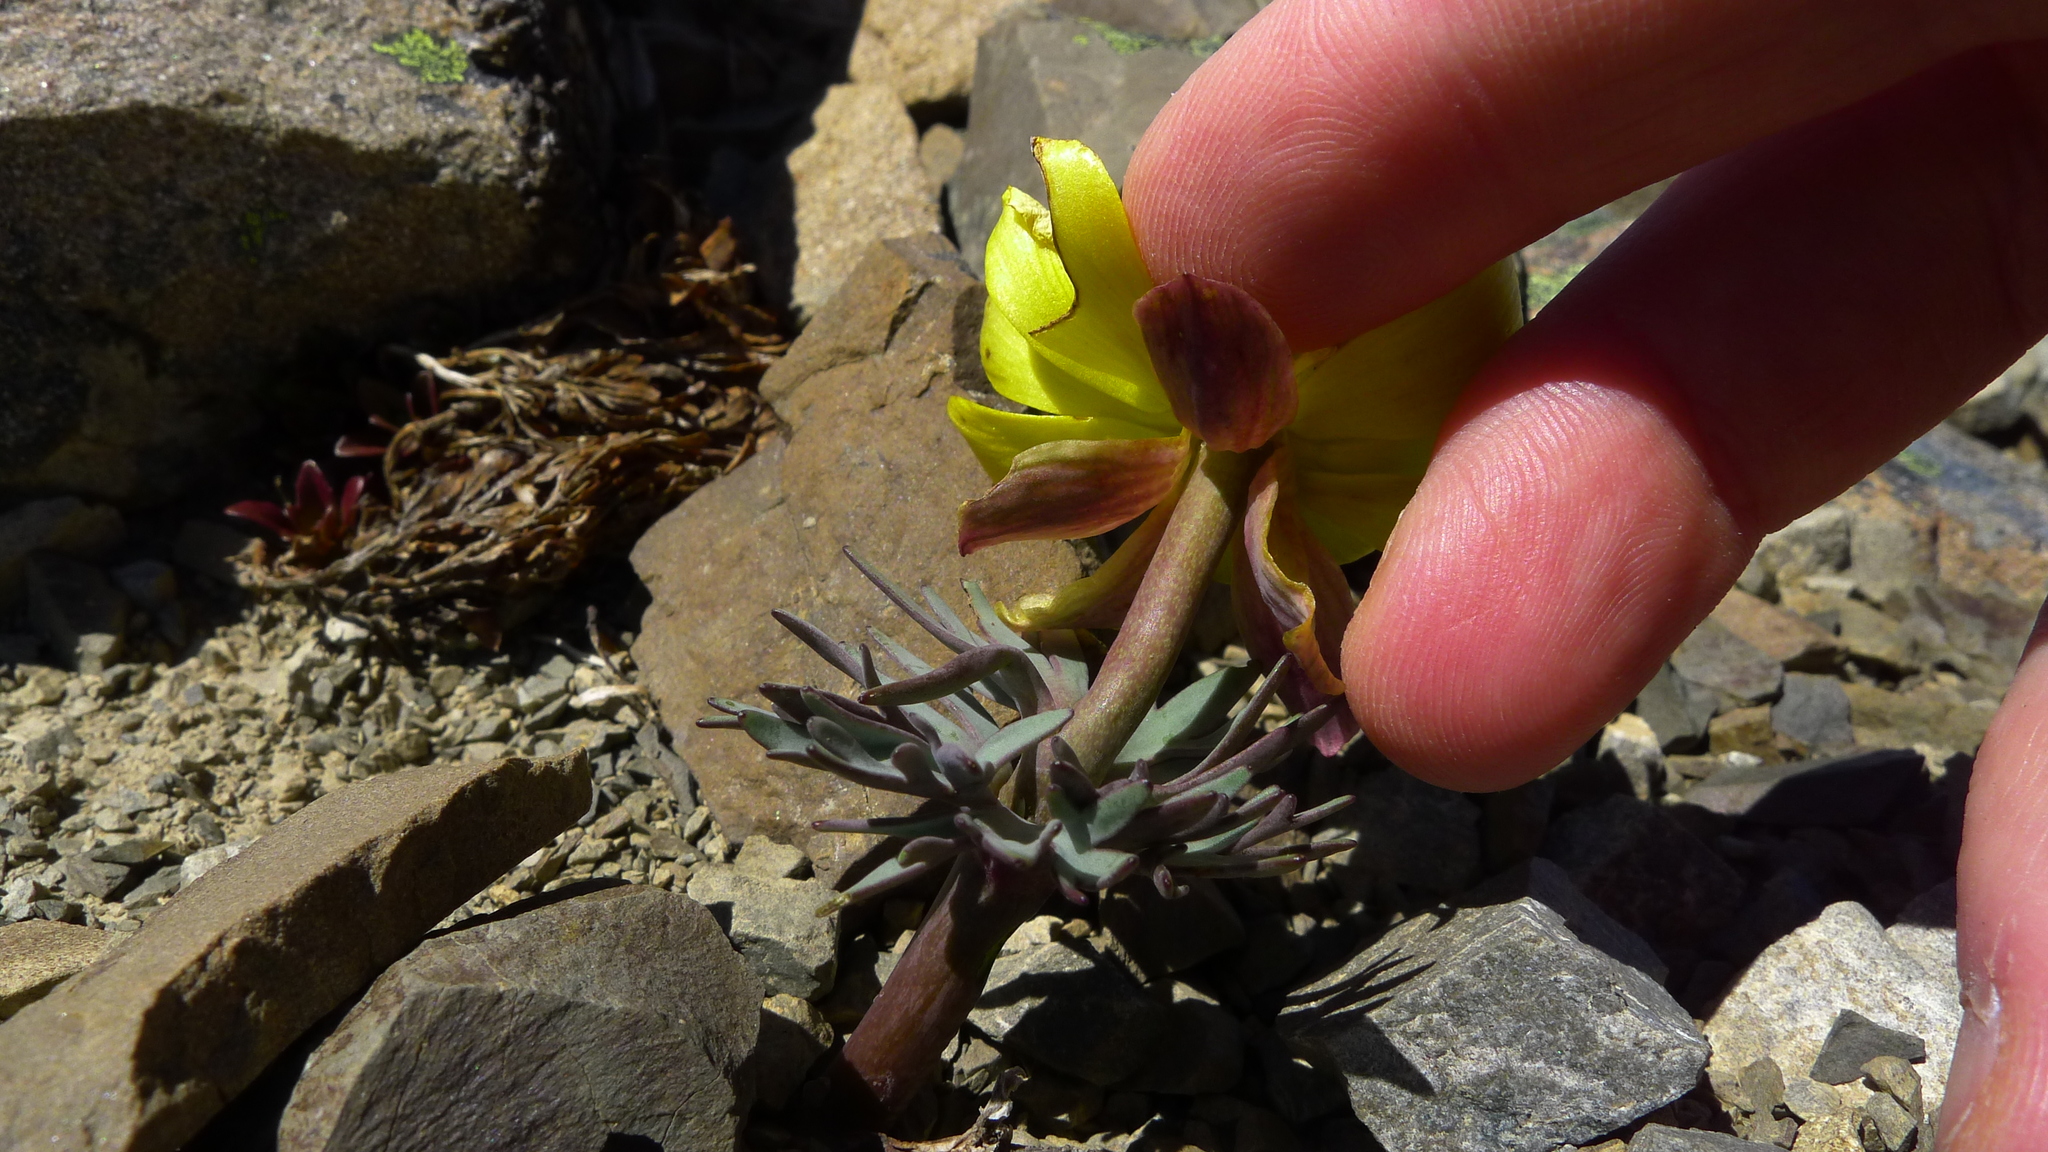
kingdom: Plantae
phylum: Tracheophyta
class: Magnoliopsida
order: Ranunculales
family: Ranunculaceae
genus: Ranunculus
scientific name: Ranunculus haastii
